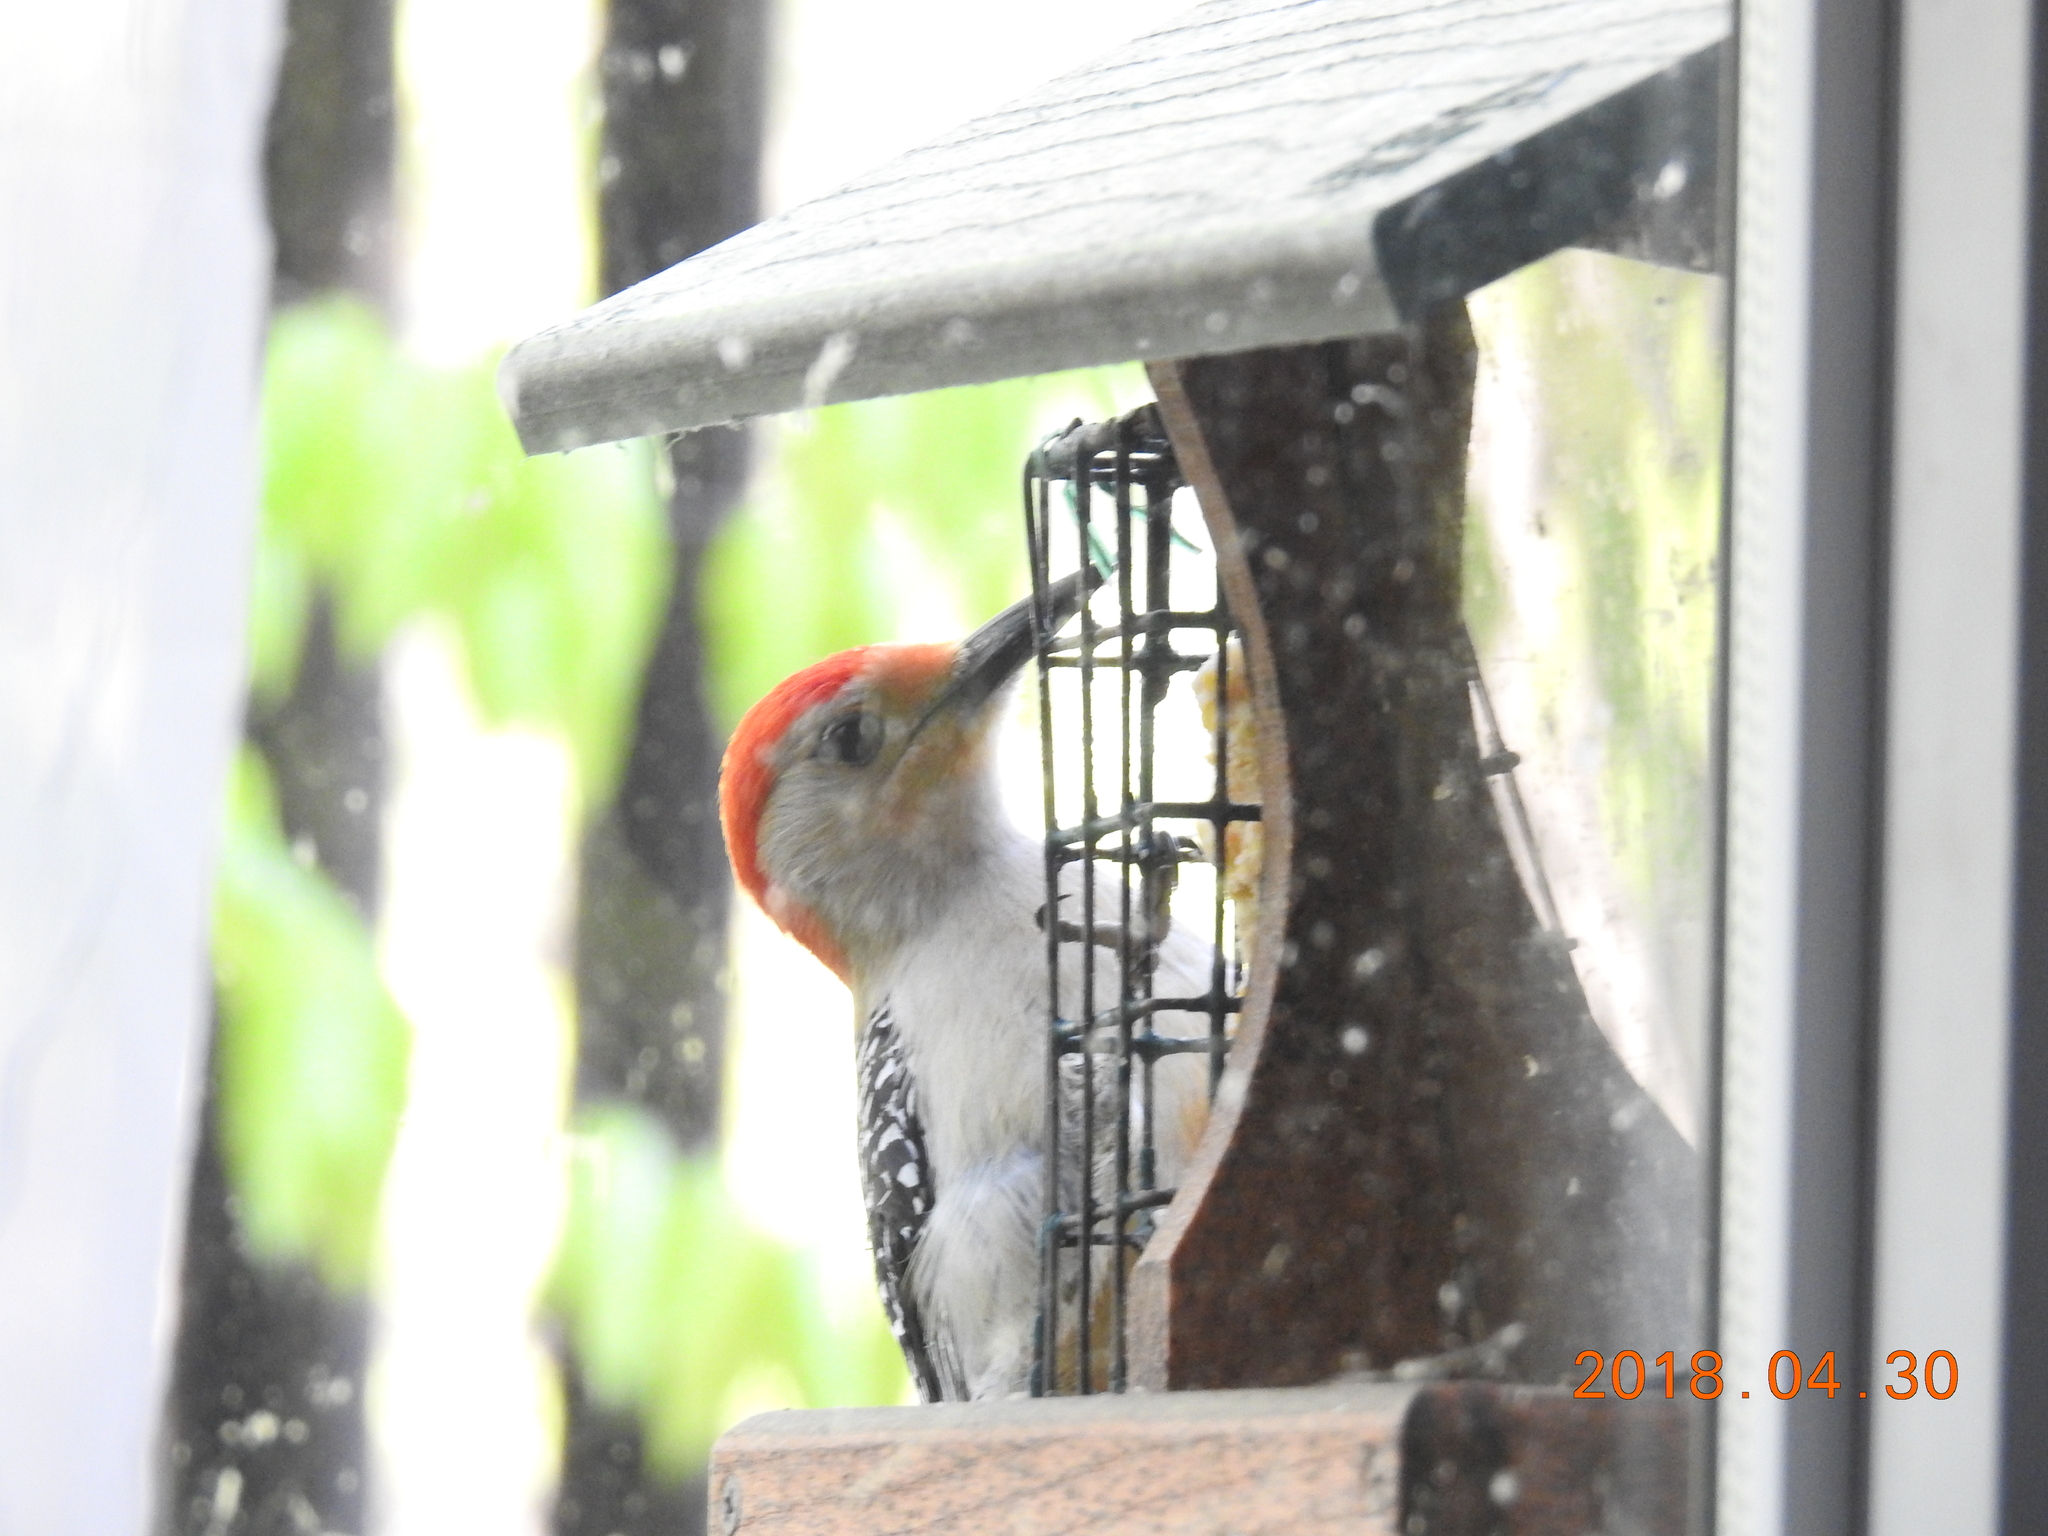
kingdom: Animalia
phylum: Chordata
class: Aves
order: Piciformes
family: Picidae
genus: Melanerpes
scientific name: Melanerpes carolinus
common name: Red-bellied woodpecker
